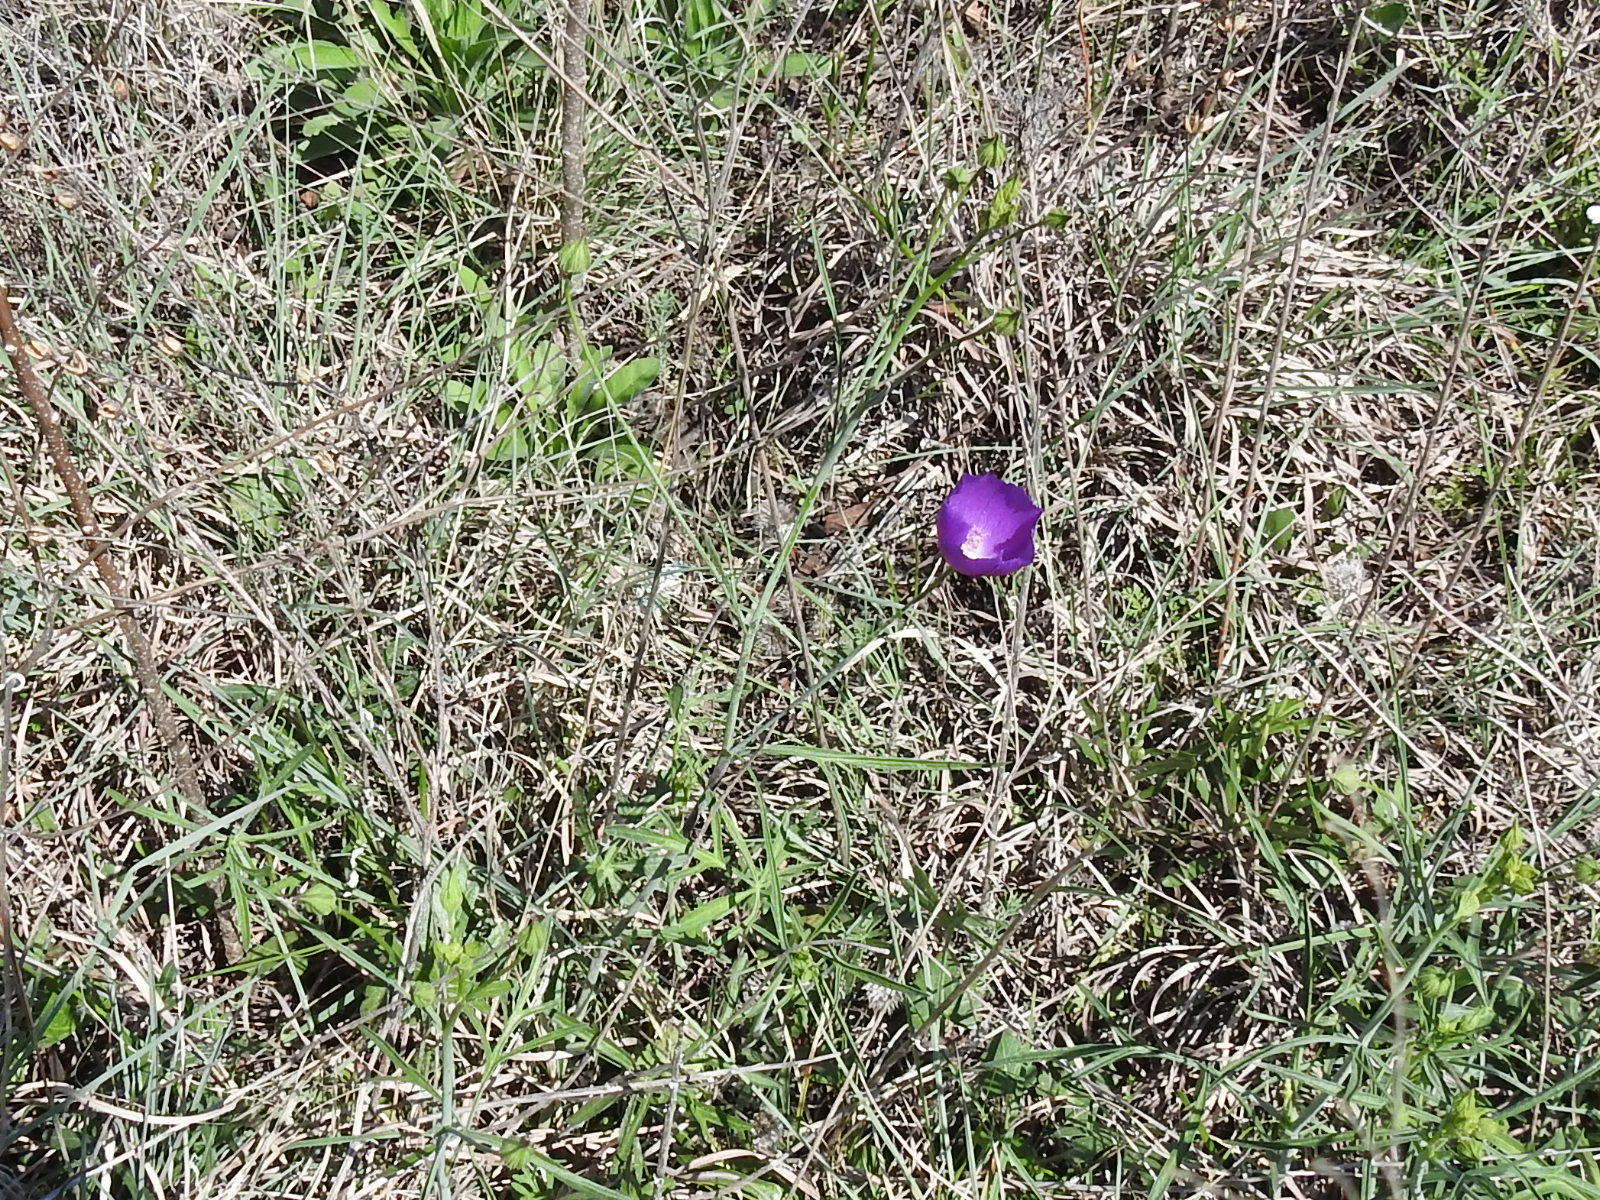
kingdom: Plantae
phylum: Tracheophyta
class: Magnoliopsida
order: Malvales
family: Malvaceae
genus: Callirhoe
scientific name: Callirhoe pedata
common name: Finger poppy-mallow
